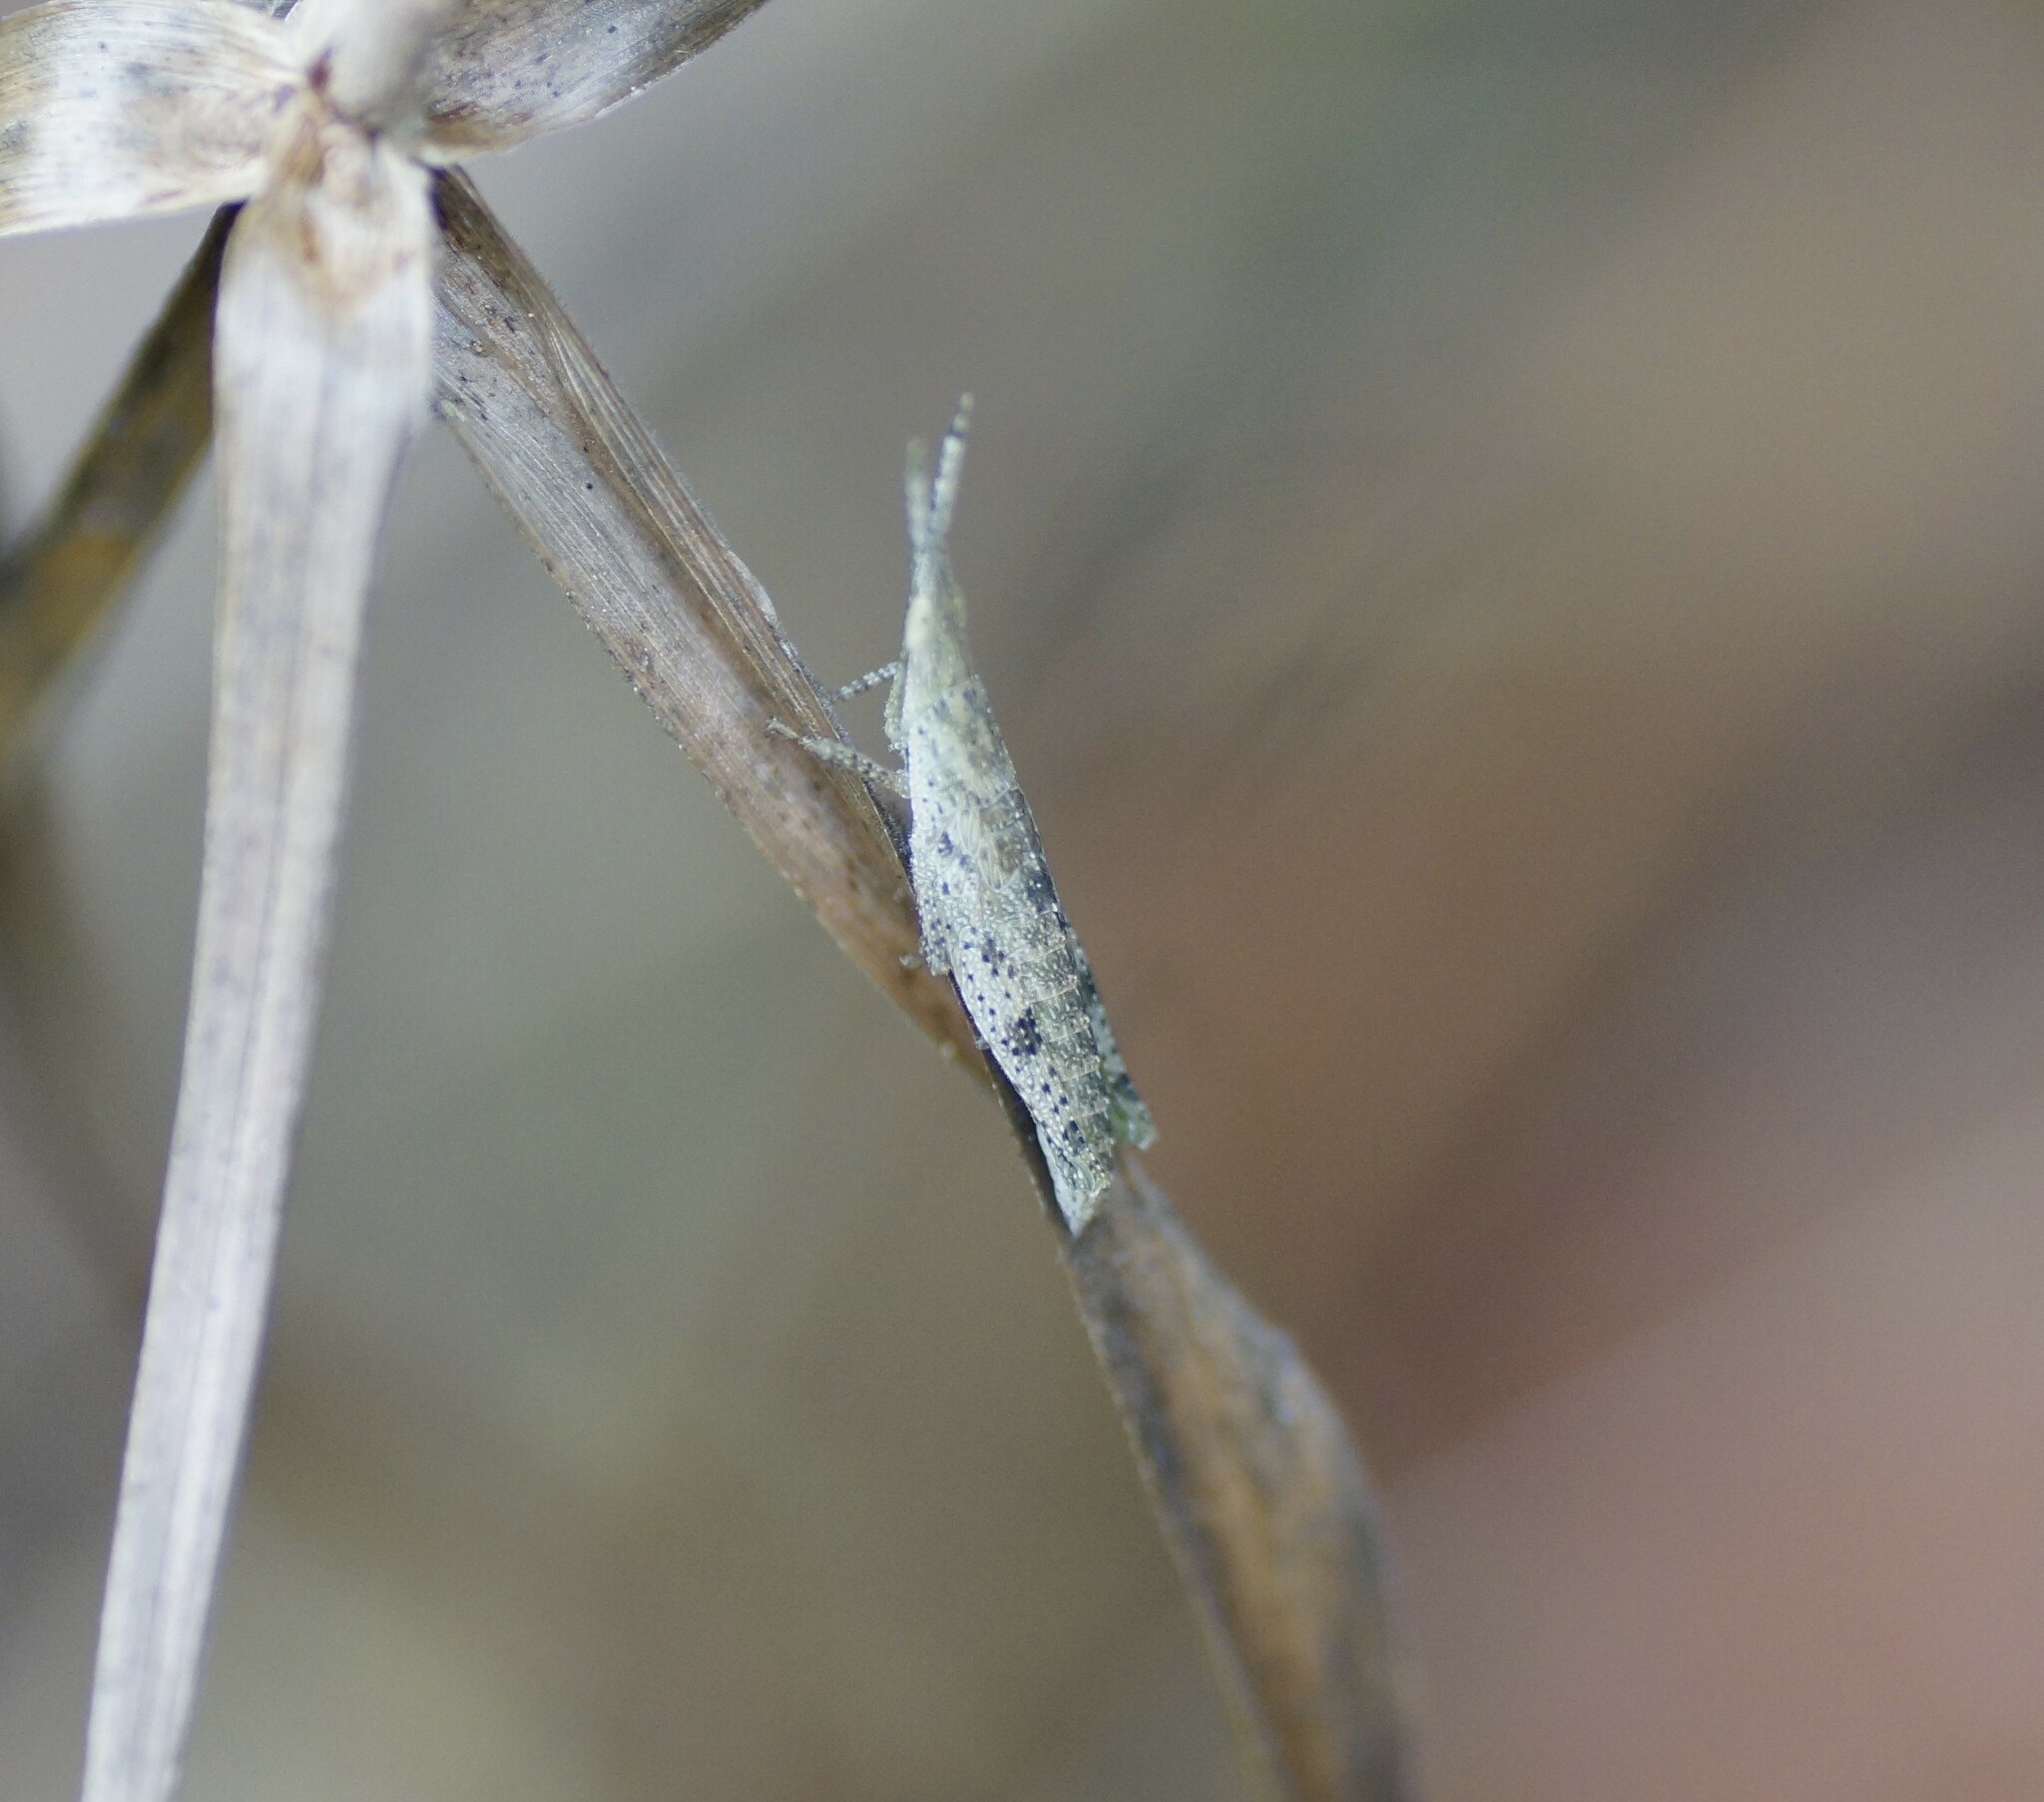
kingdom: Animalia
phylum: Arthropoda
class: Insecta
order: Orthoptera
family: Pyrgomorphidae
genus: Atractomorpha
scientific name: Atractomorpha similis
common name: Northern grass pyrgomorph
